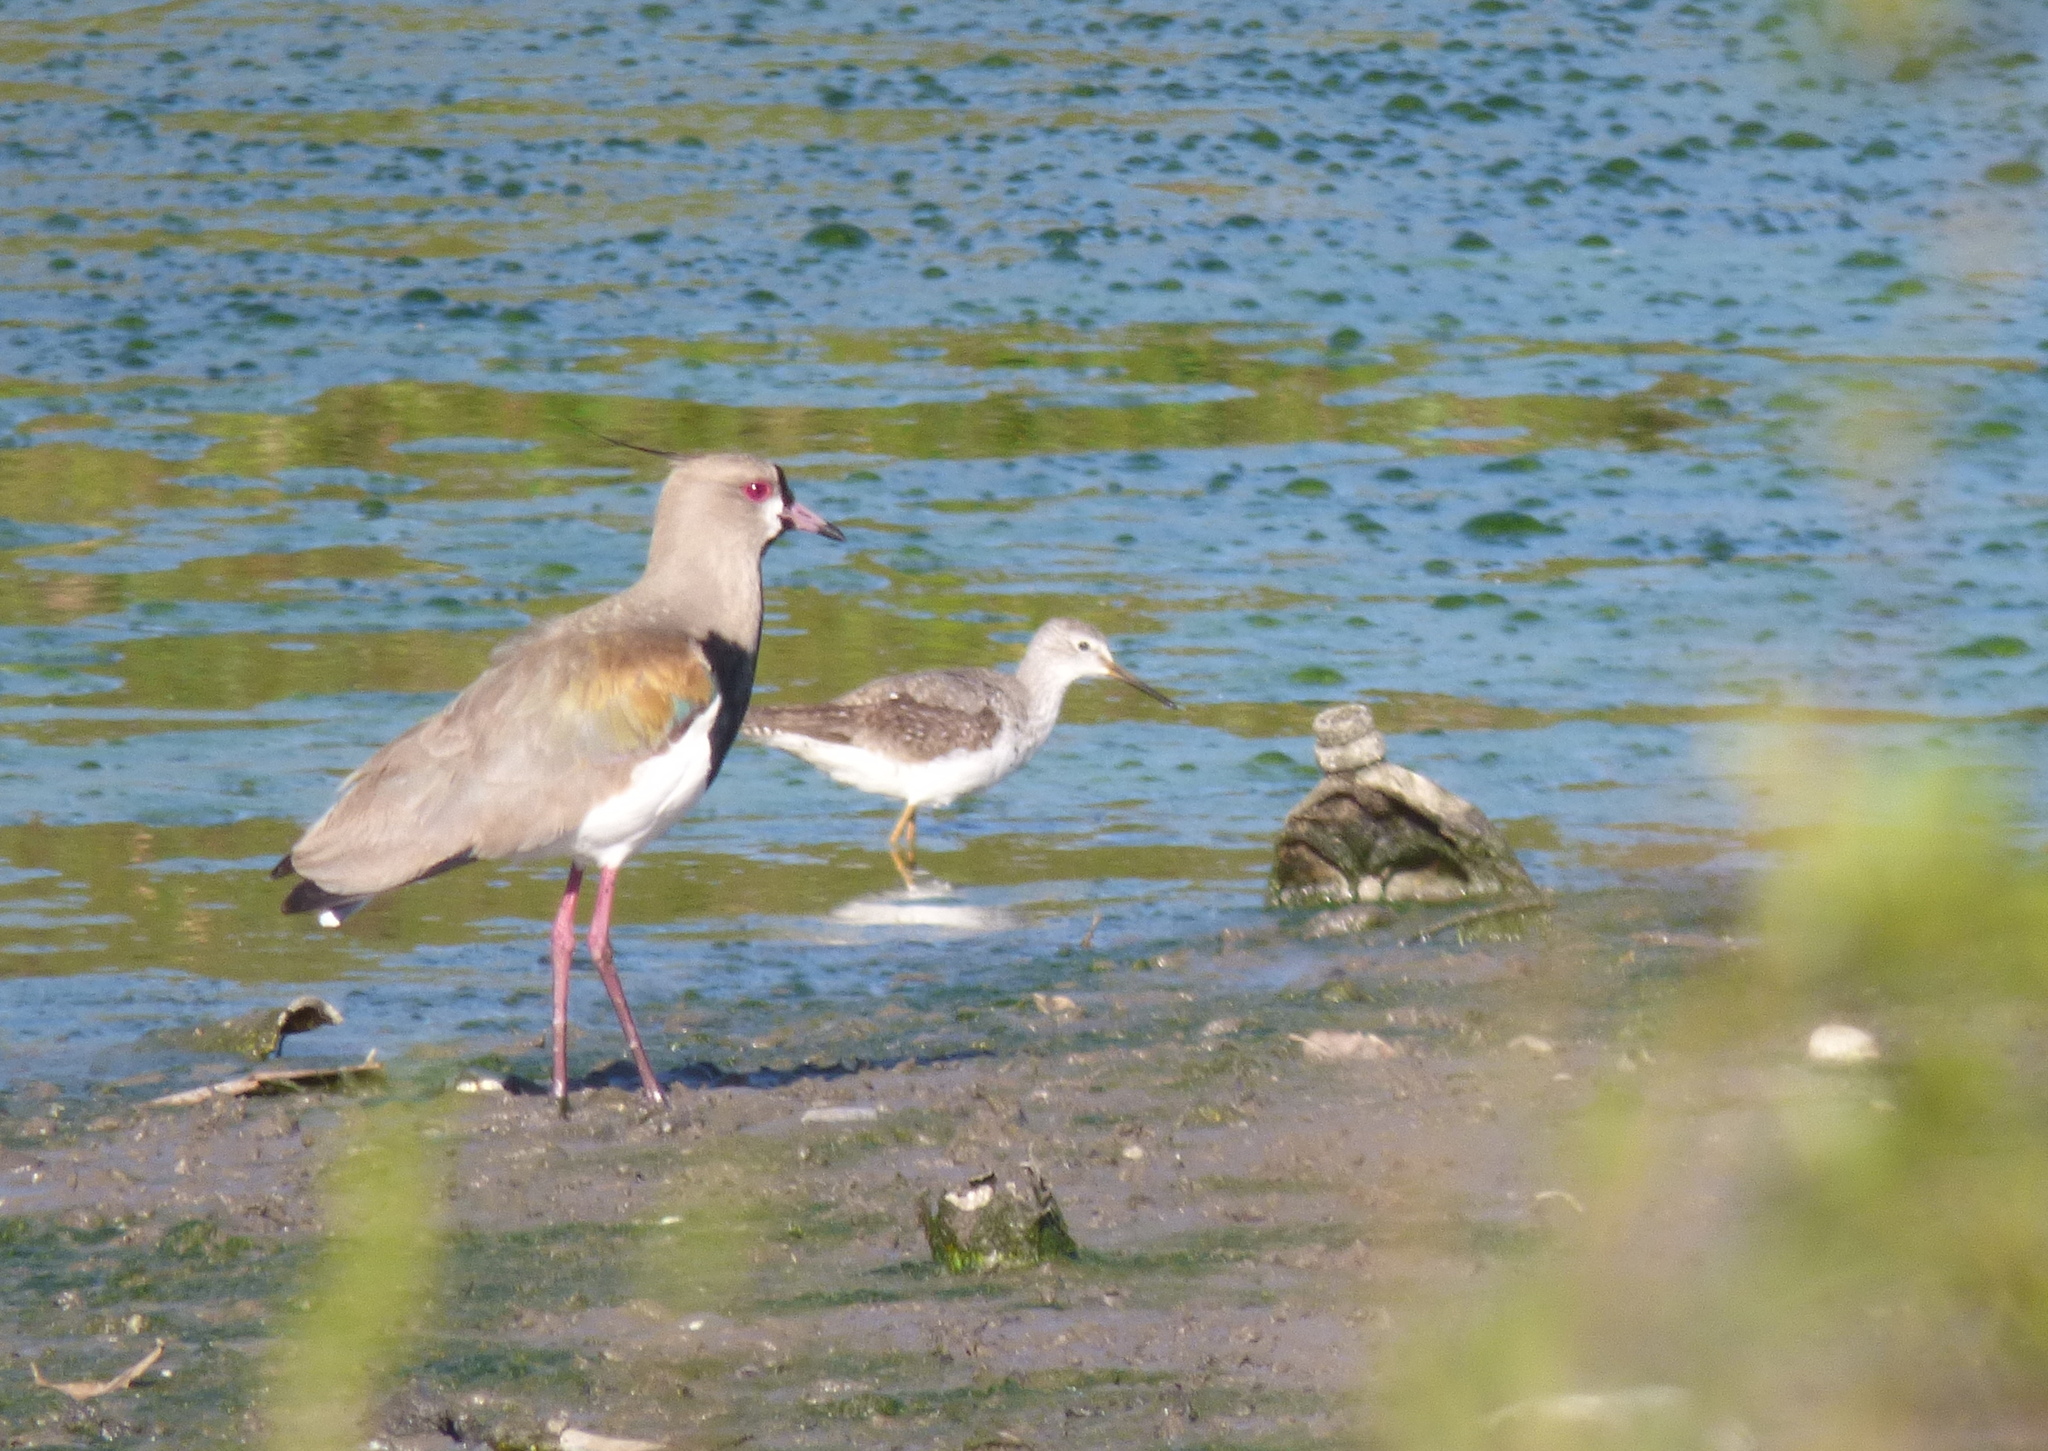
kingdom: Animalia
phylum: Chordata
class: Aves
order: Charadriiformes
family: Scolopacidae
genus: Tringa
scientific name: Tringa flavipes
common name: Lesser yellowlegs
